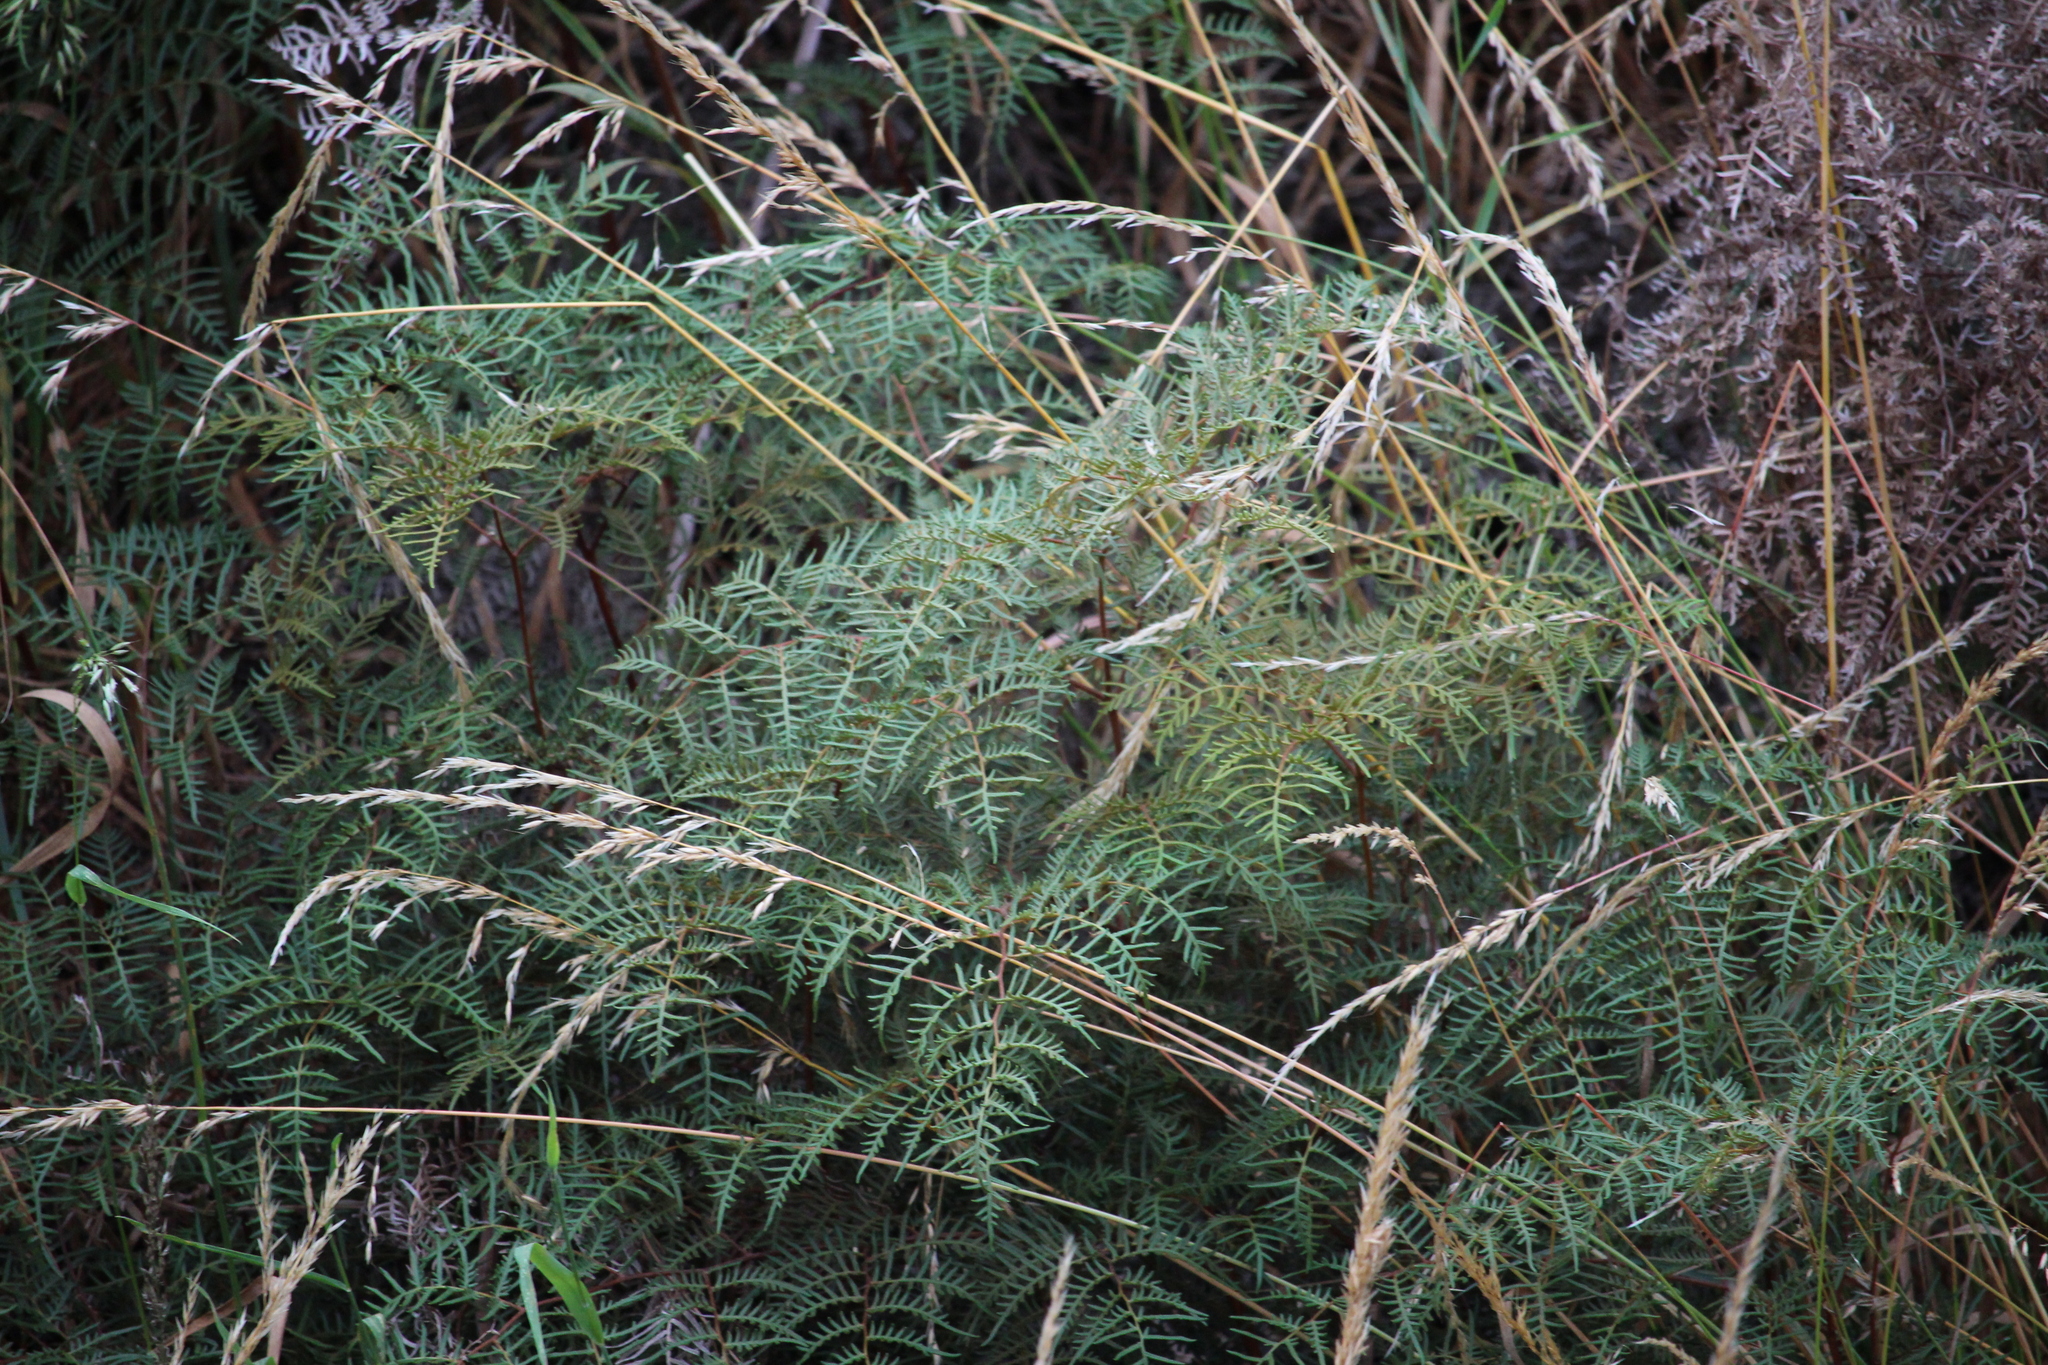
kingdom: Plantae
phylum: Tracheophyta
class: Polypodiopsida
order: Polypodiales
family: Dennstaedtiaceae
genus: Pteridium
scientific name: Pteridium esculentum
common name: Bracken fern
